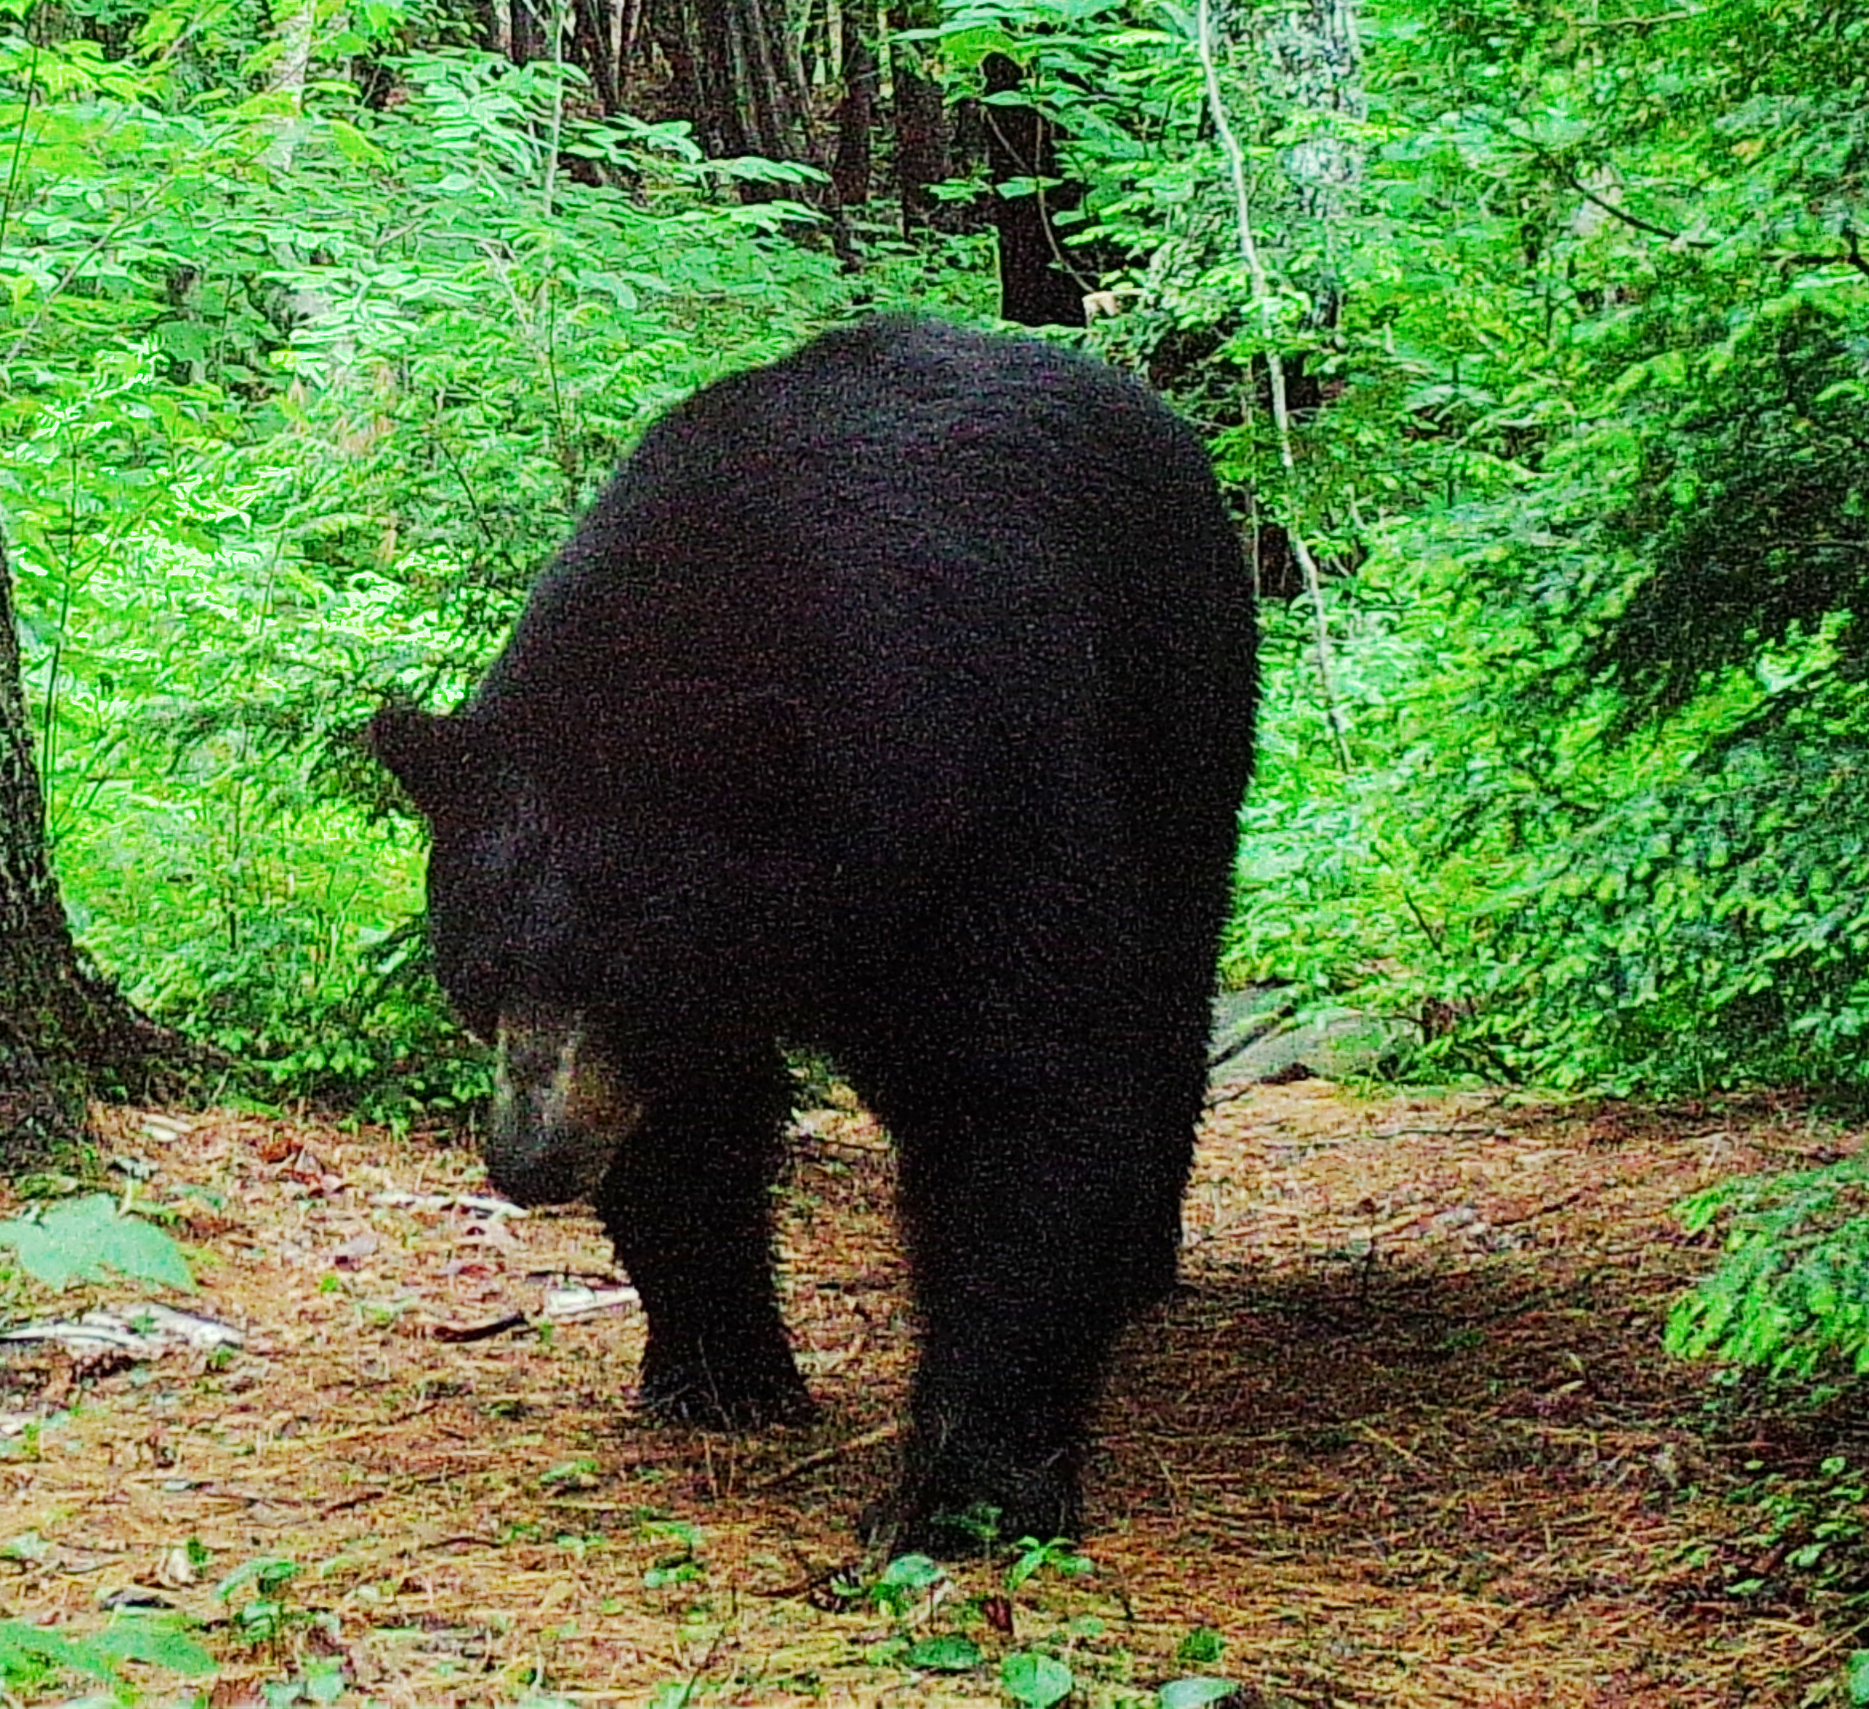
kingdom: Animalia
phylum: Chordata
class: Mammalia
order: Carnivora
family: Ursidae
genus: Ursus
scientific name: Ursus americanus
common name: American black bear
